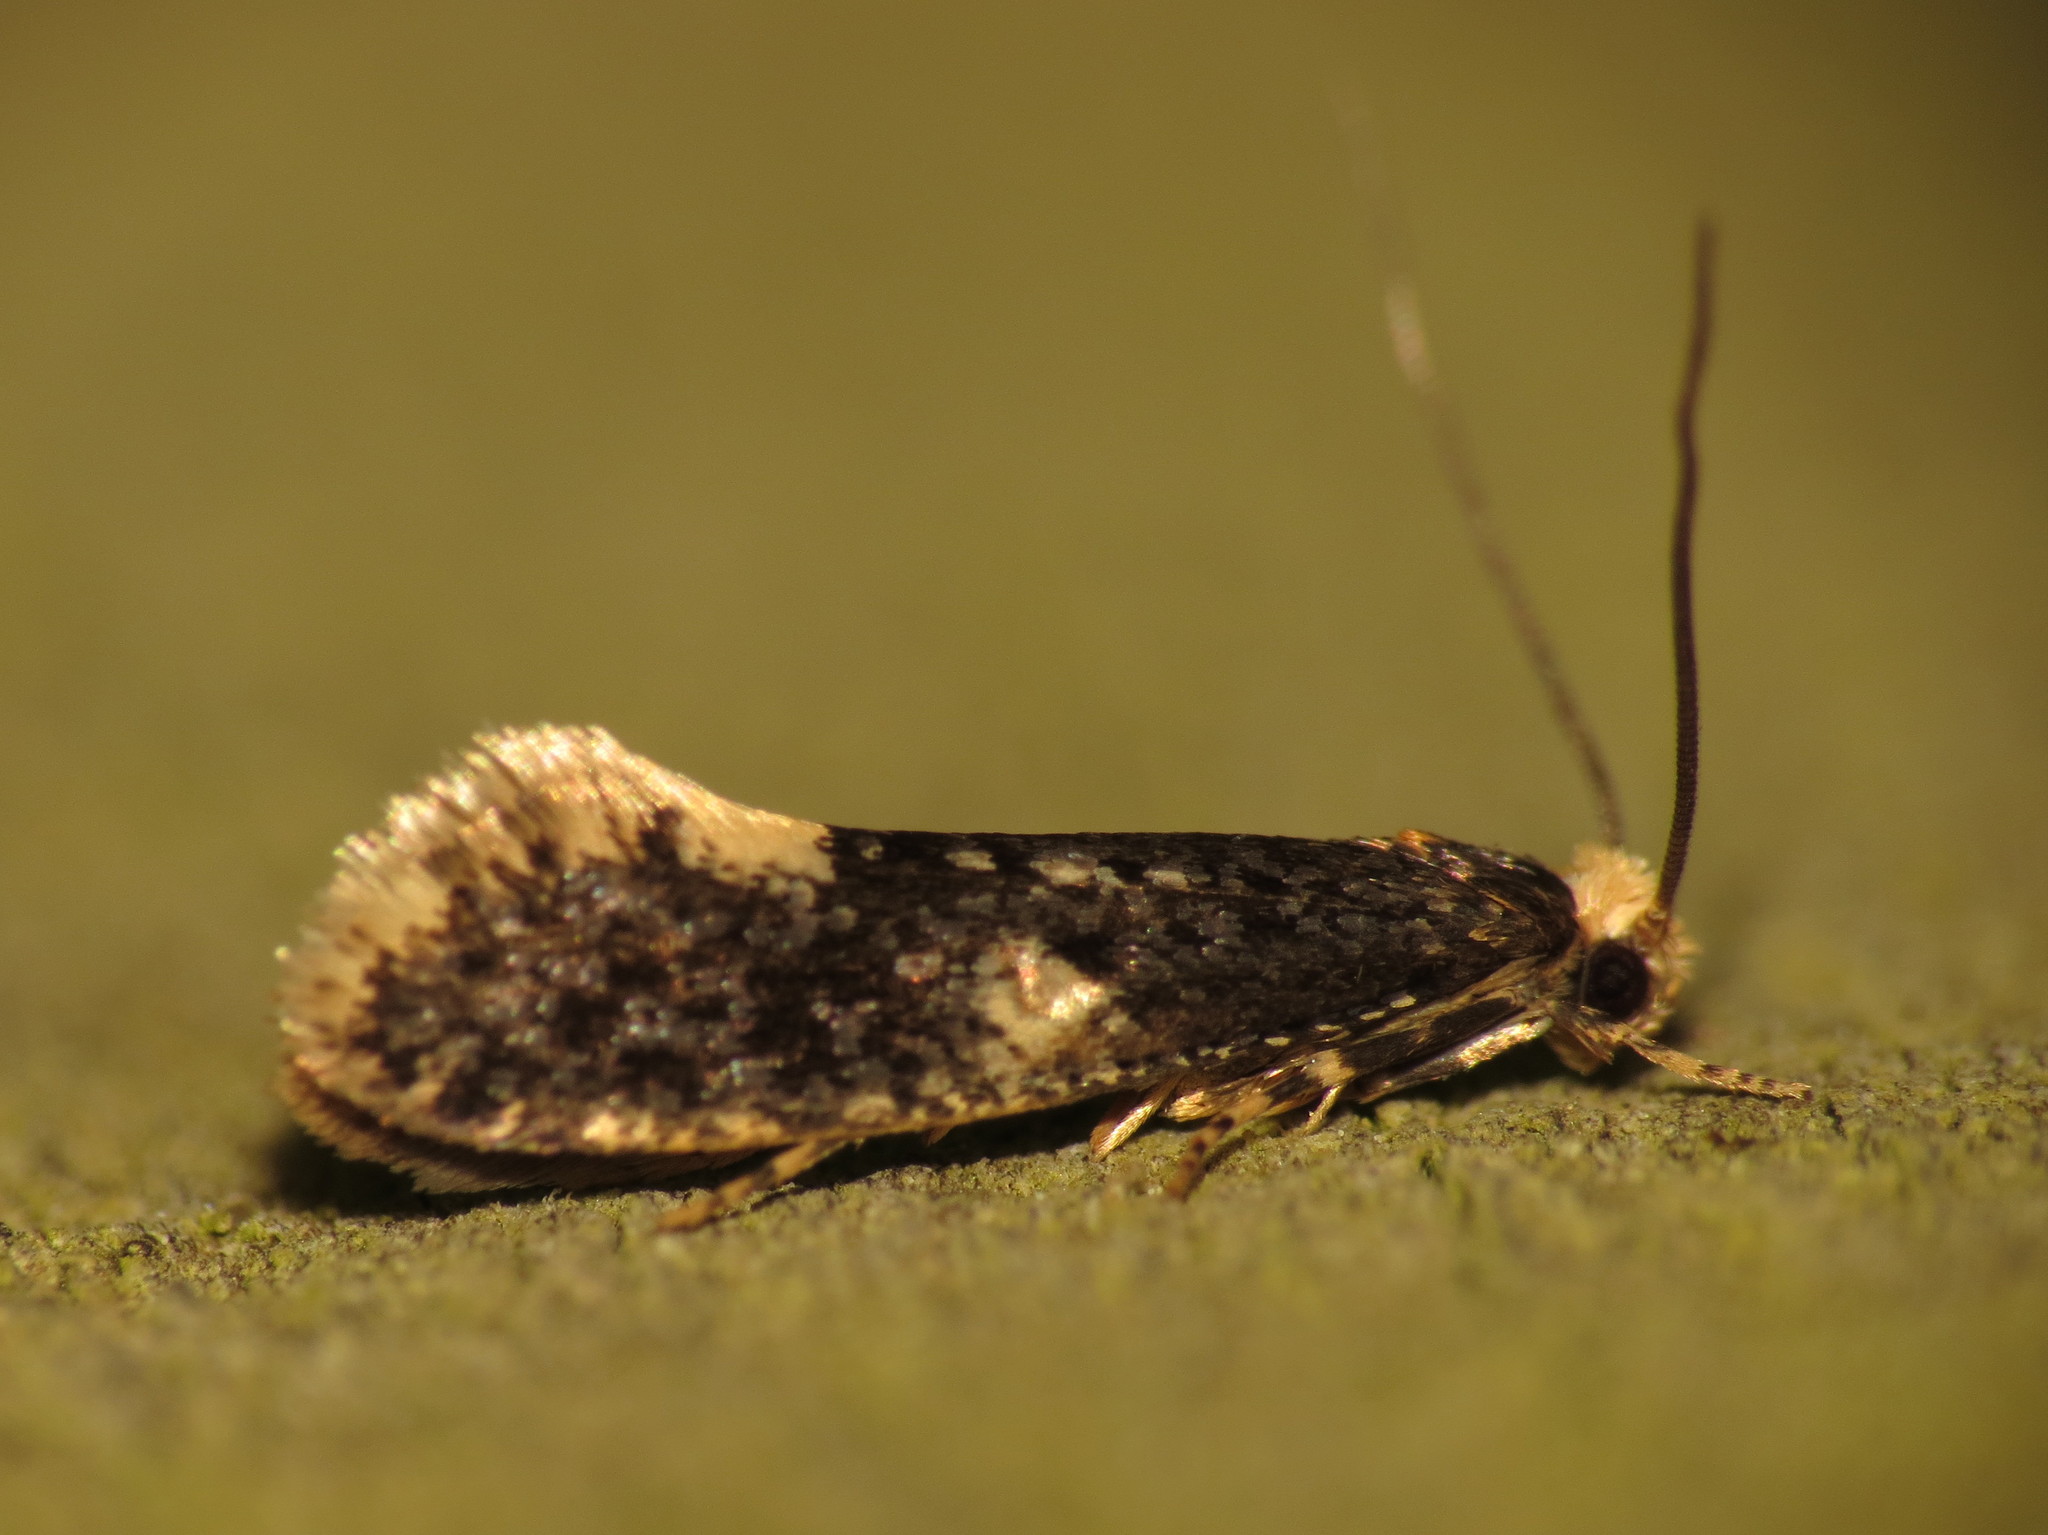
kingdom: Animalia
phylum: Arthropoda
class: Insecta
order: Lepidoptera
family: Tineidae
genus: Monopis
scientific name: Monopis weaverella
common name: Carrion moth
